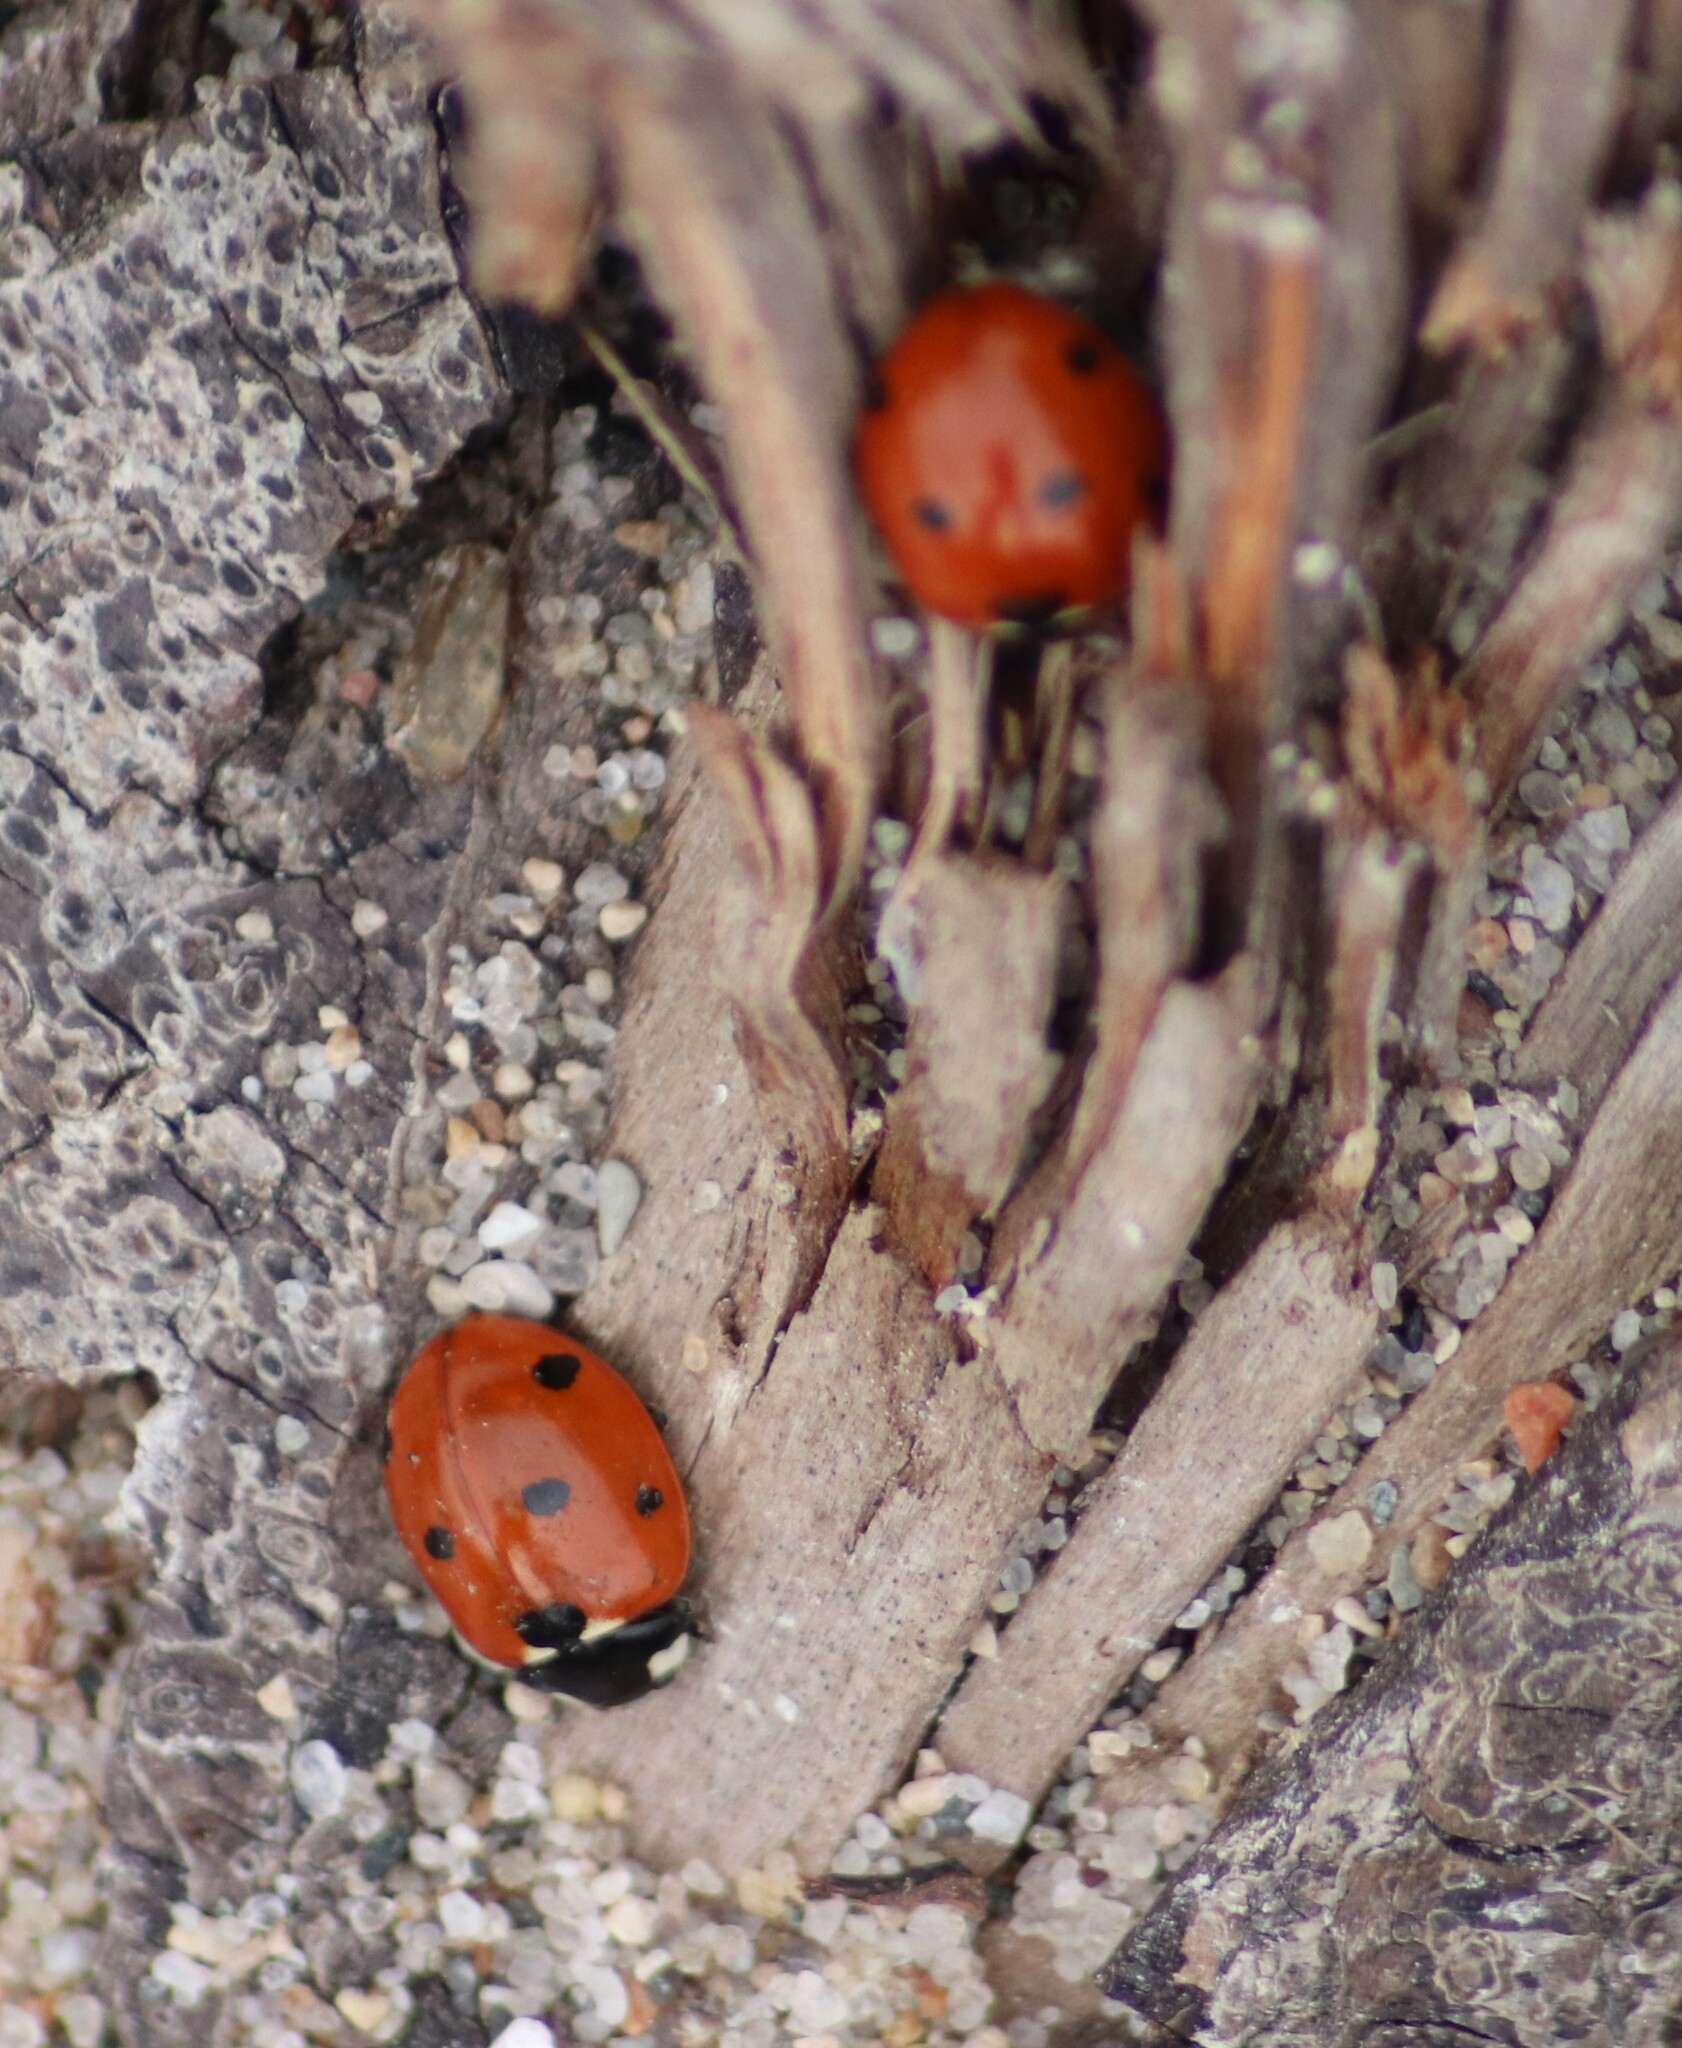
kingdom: Animalia
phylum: Arthropoda
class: Insecta
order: Coleoptera
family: Coccinellidae
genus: Coccinella
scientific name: Coccinella septempunctata
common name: Sevenspotted lady beetle
